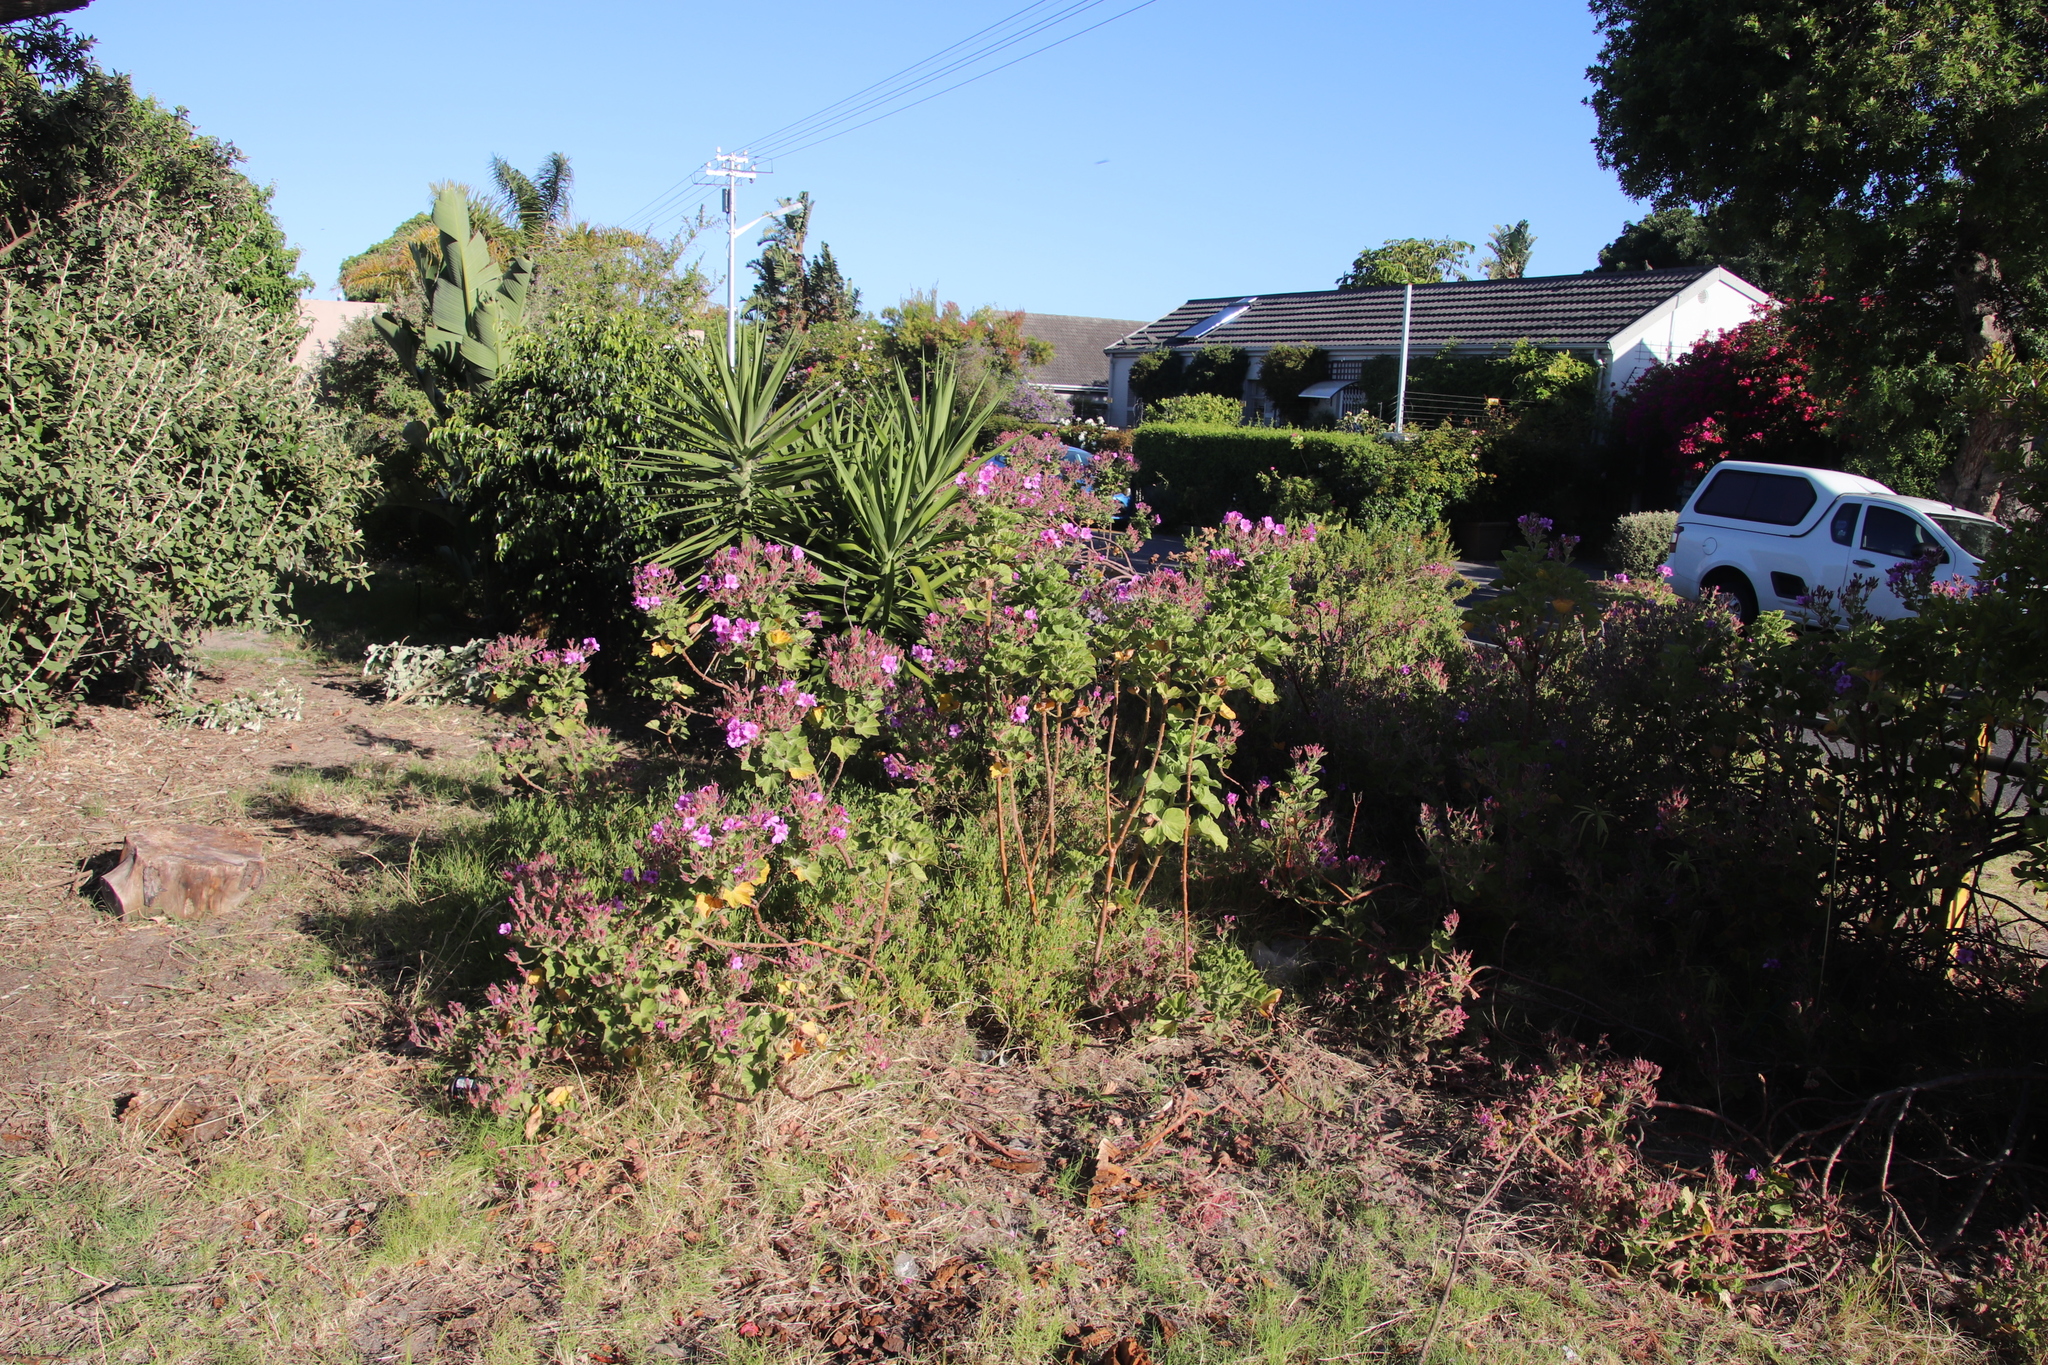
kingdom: Plantae
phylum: Tracheophyta
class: Magnoliopsida
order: Geraniales
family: Geraniaceae
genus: Pelargonium
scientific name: Pelargonium cucullatum
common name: Tree pelargonium
